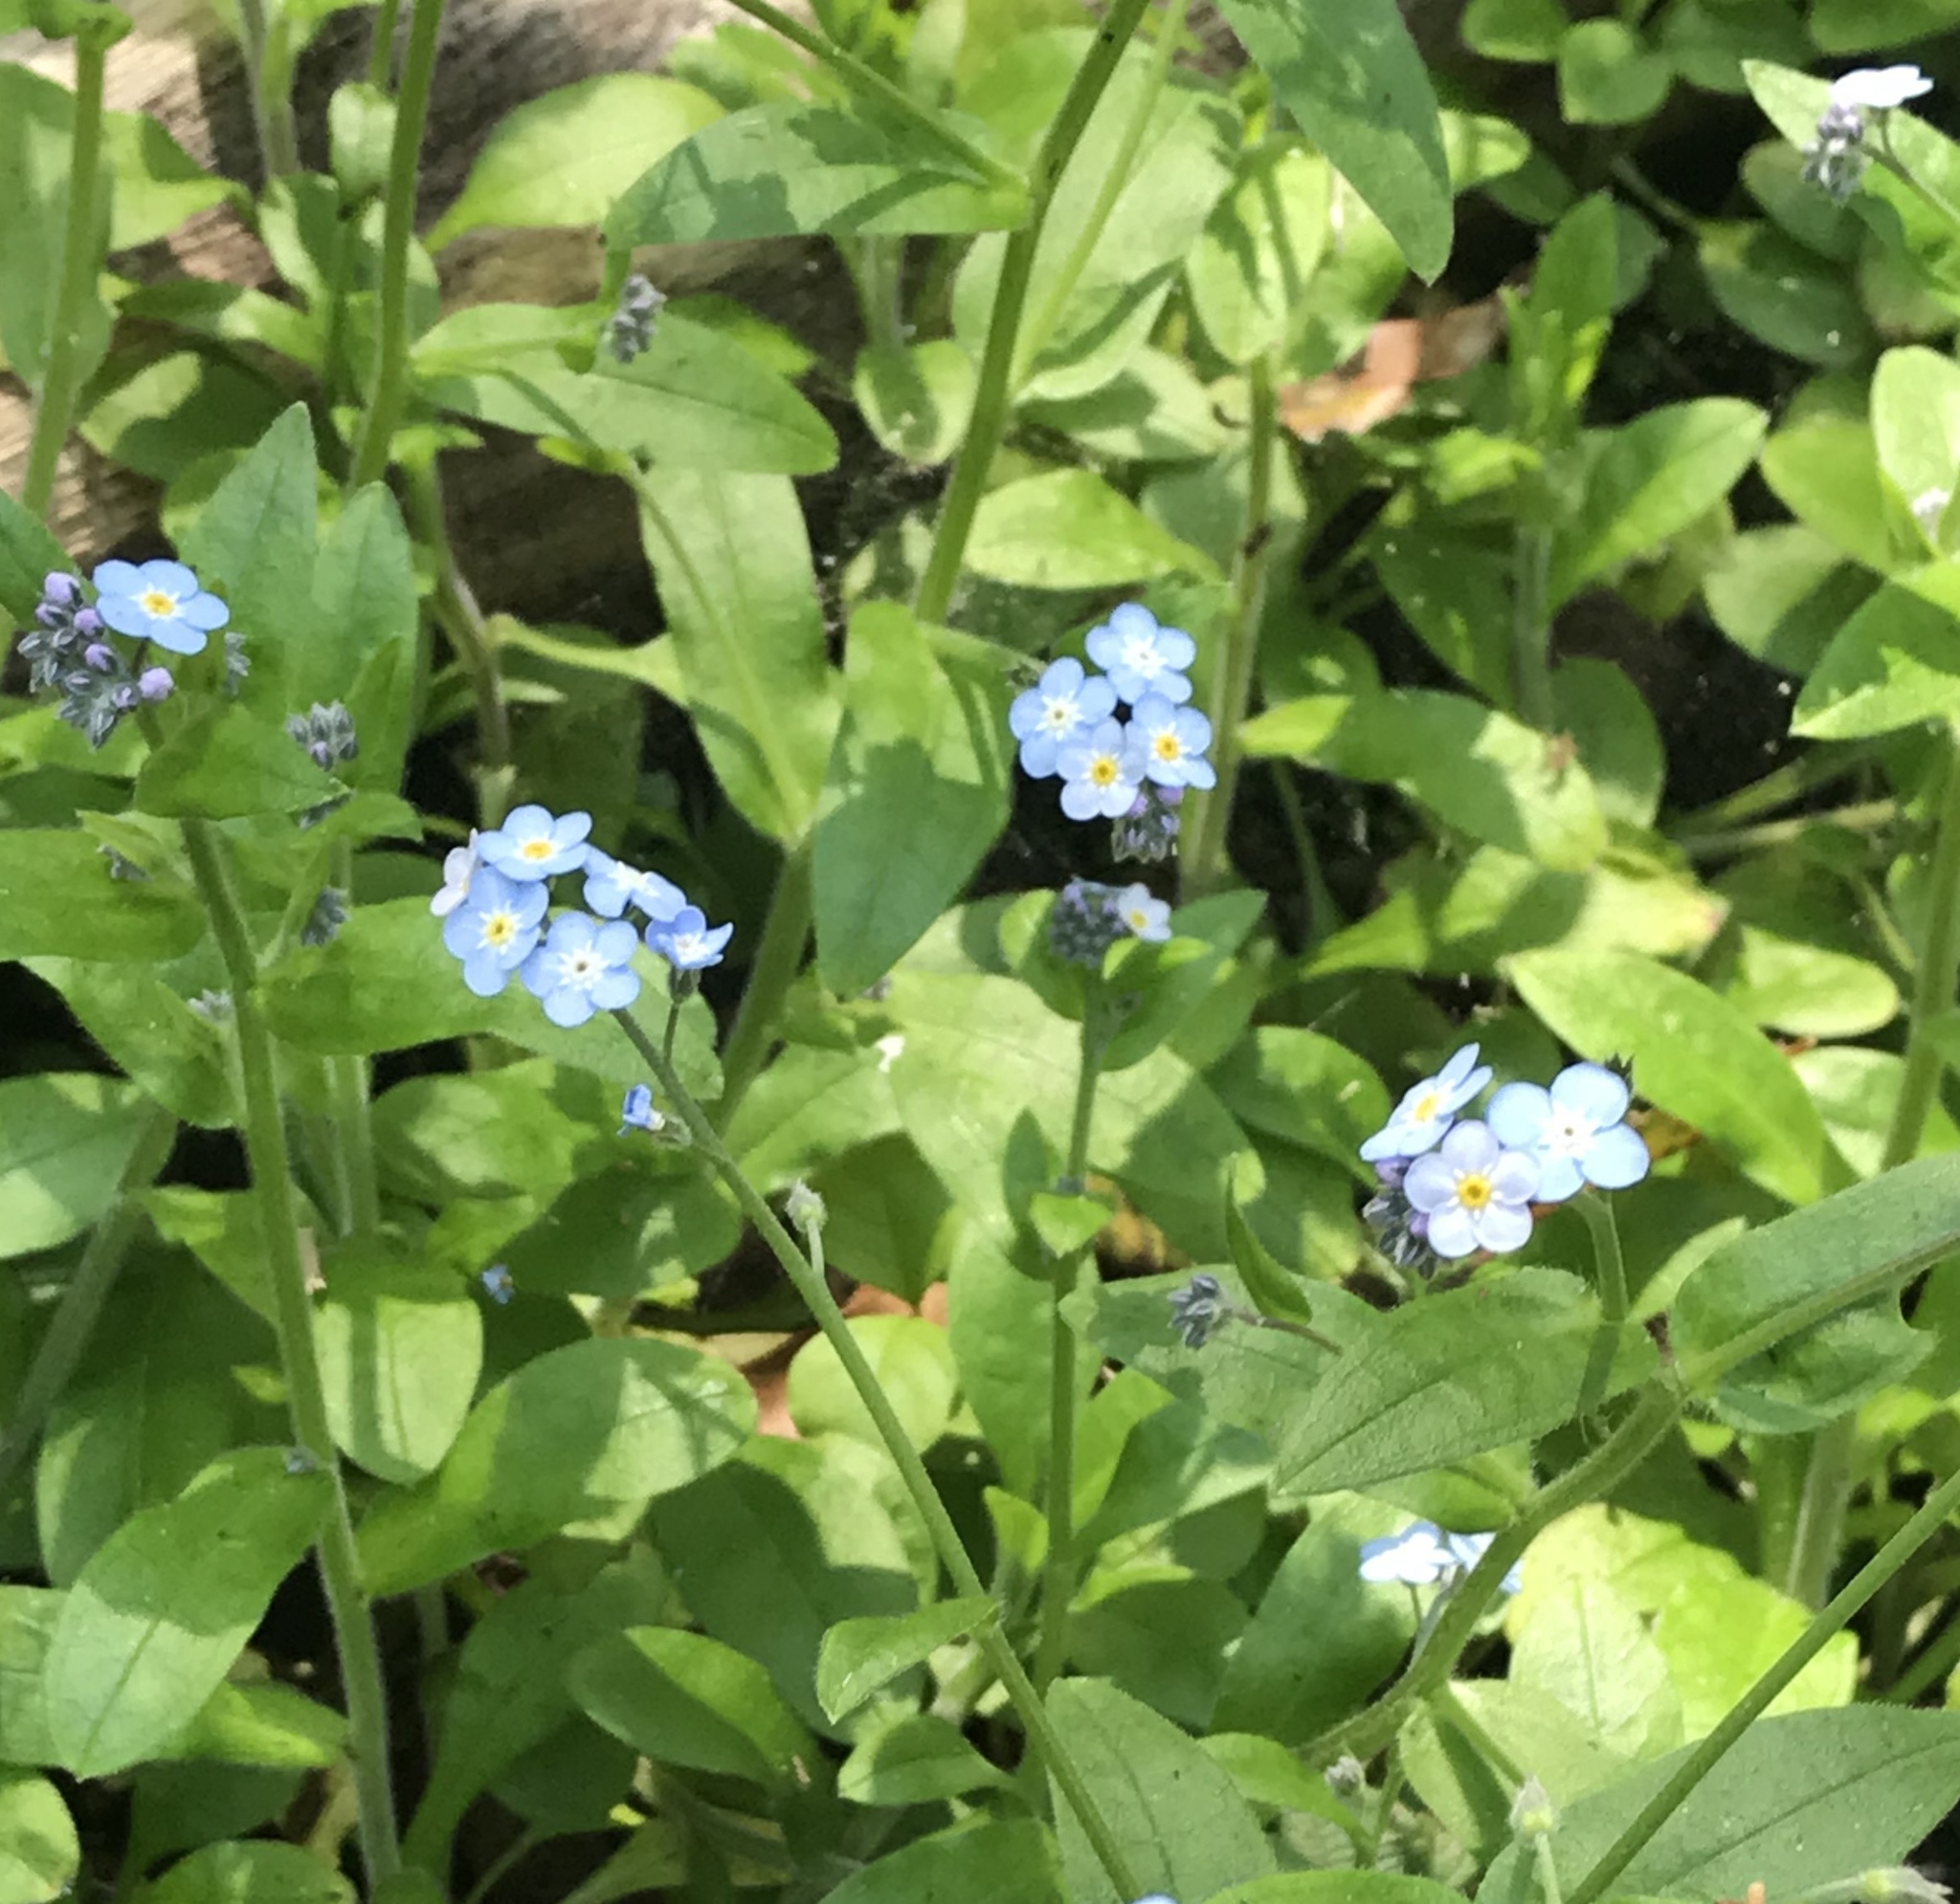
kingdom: Plantae
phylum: Tracheophyta
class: Magnoliopsida
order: Boraginales
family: Boraginaceae
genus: Myosotis
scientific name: Myosotis latifolia
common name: Broadleaf forget-me-not
